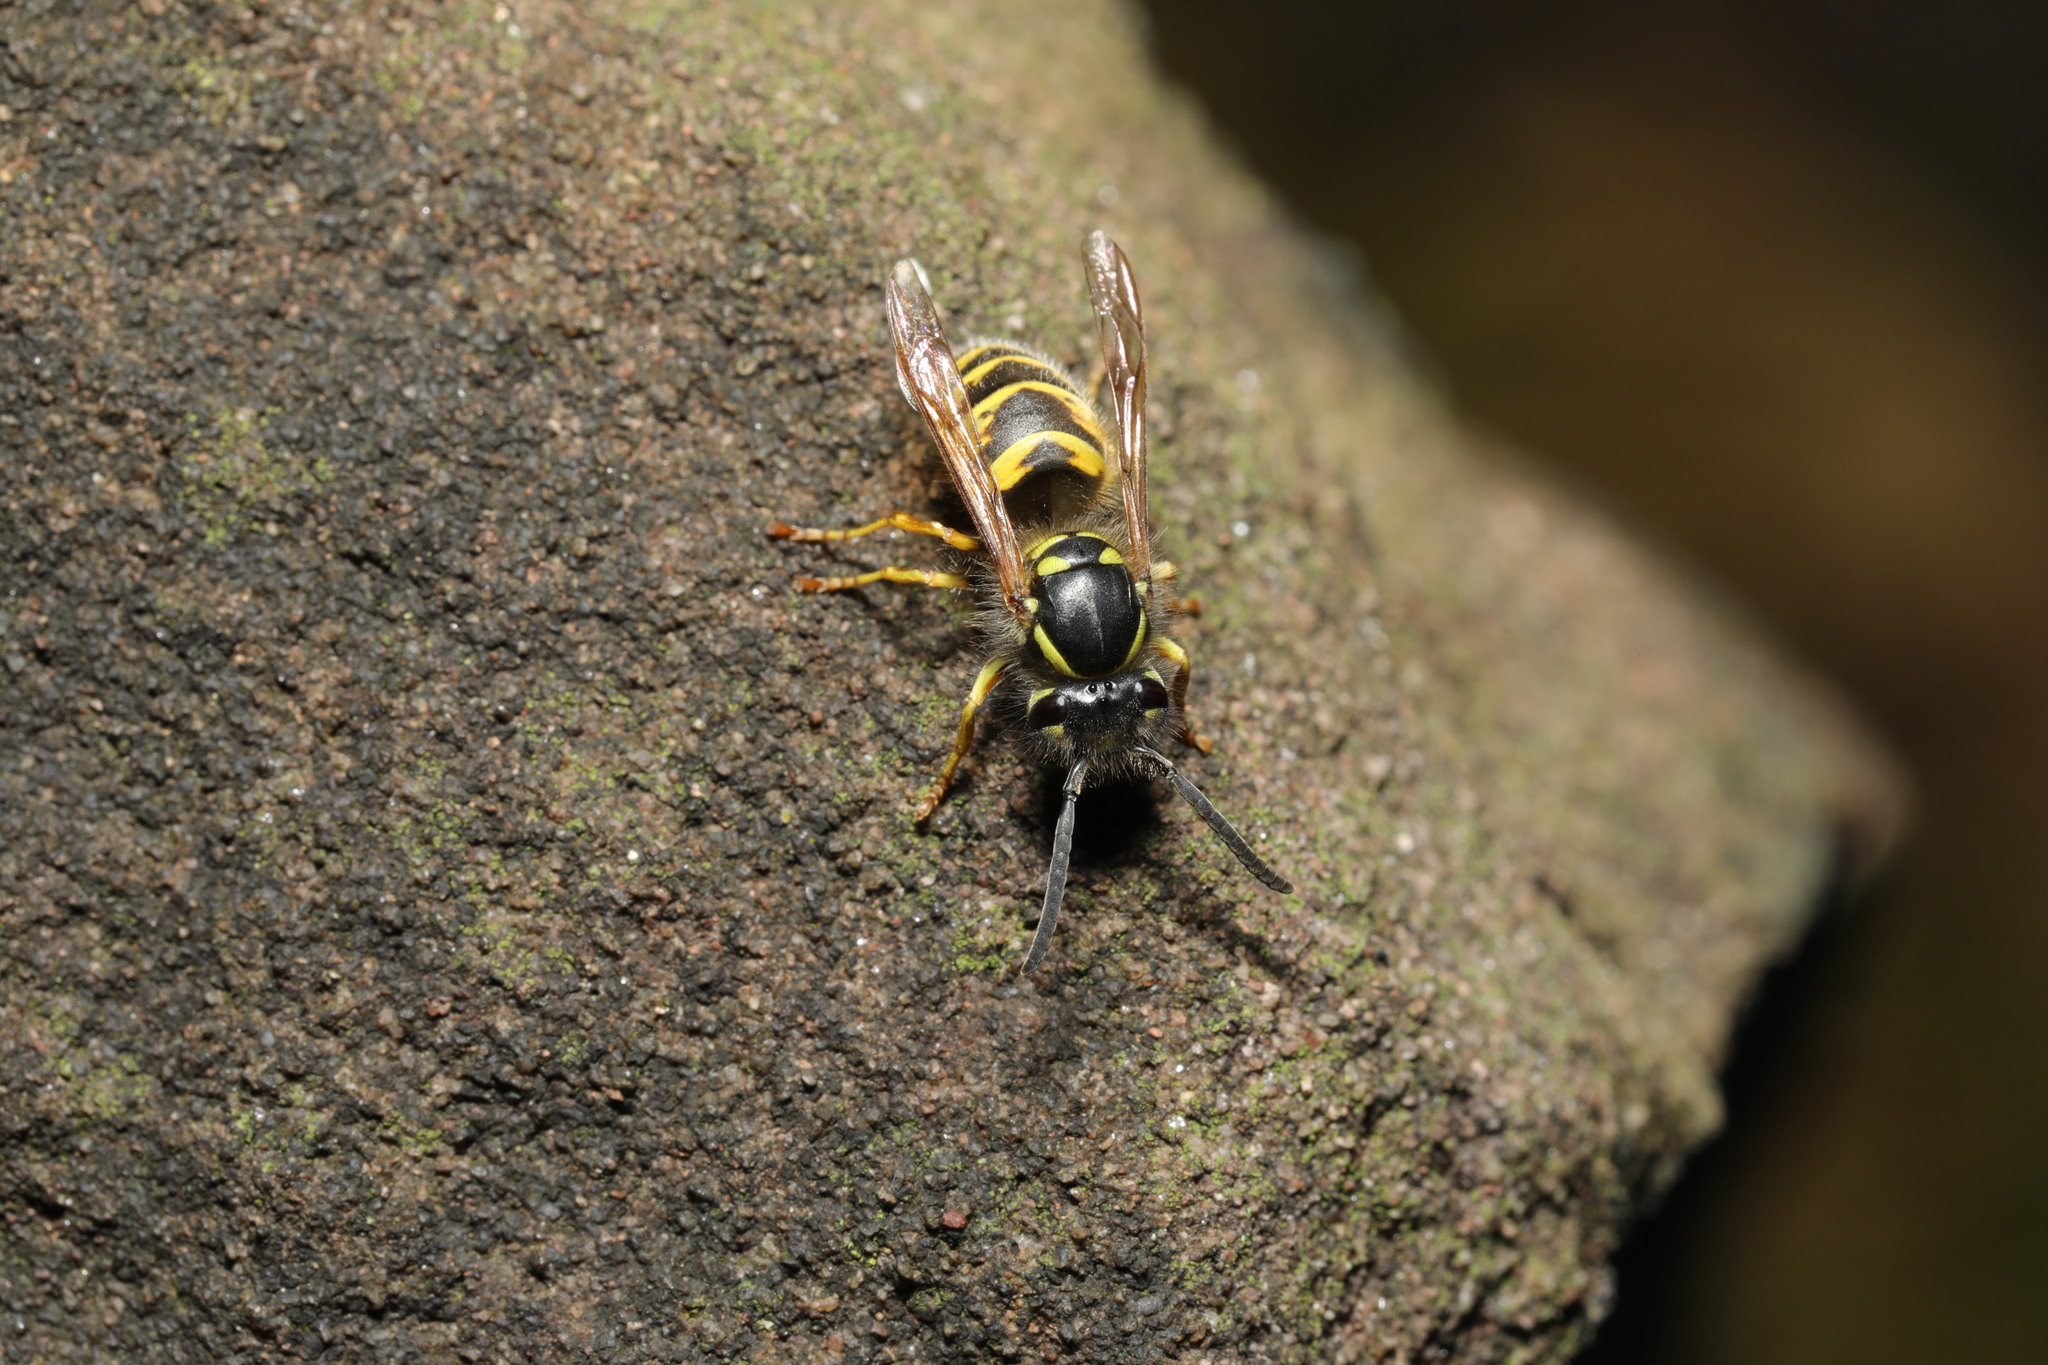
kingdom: Animalia
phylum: Arthropoda
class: Insecta
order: Hymenoptera
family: Vespidae
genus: Vespula
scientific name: Vespula vulgaris
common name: Common wasp
